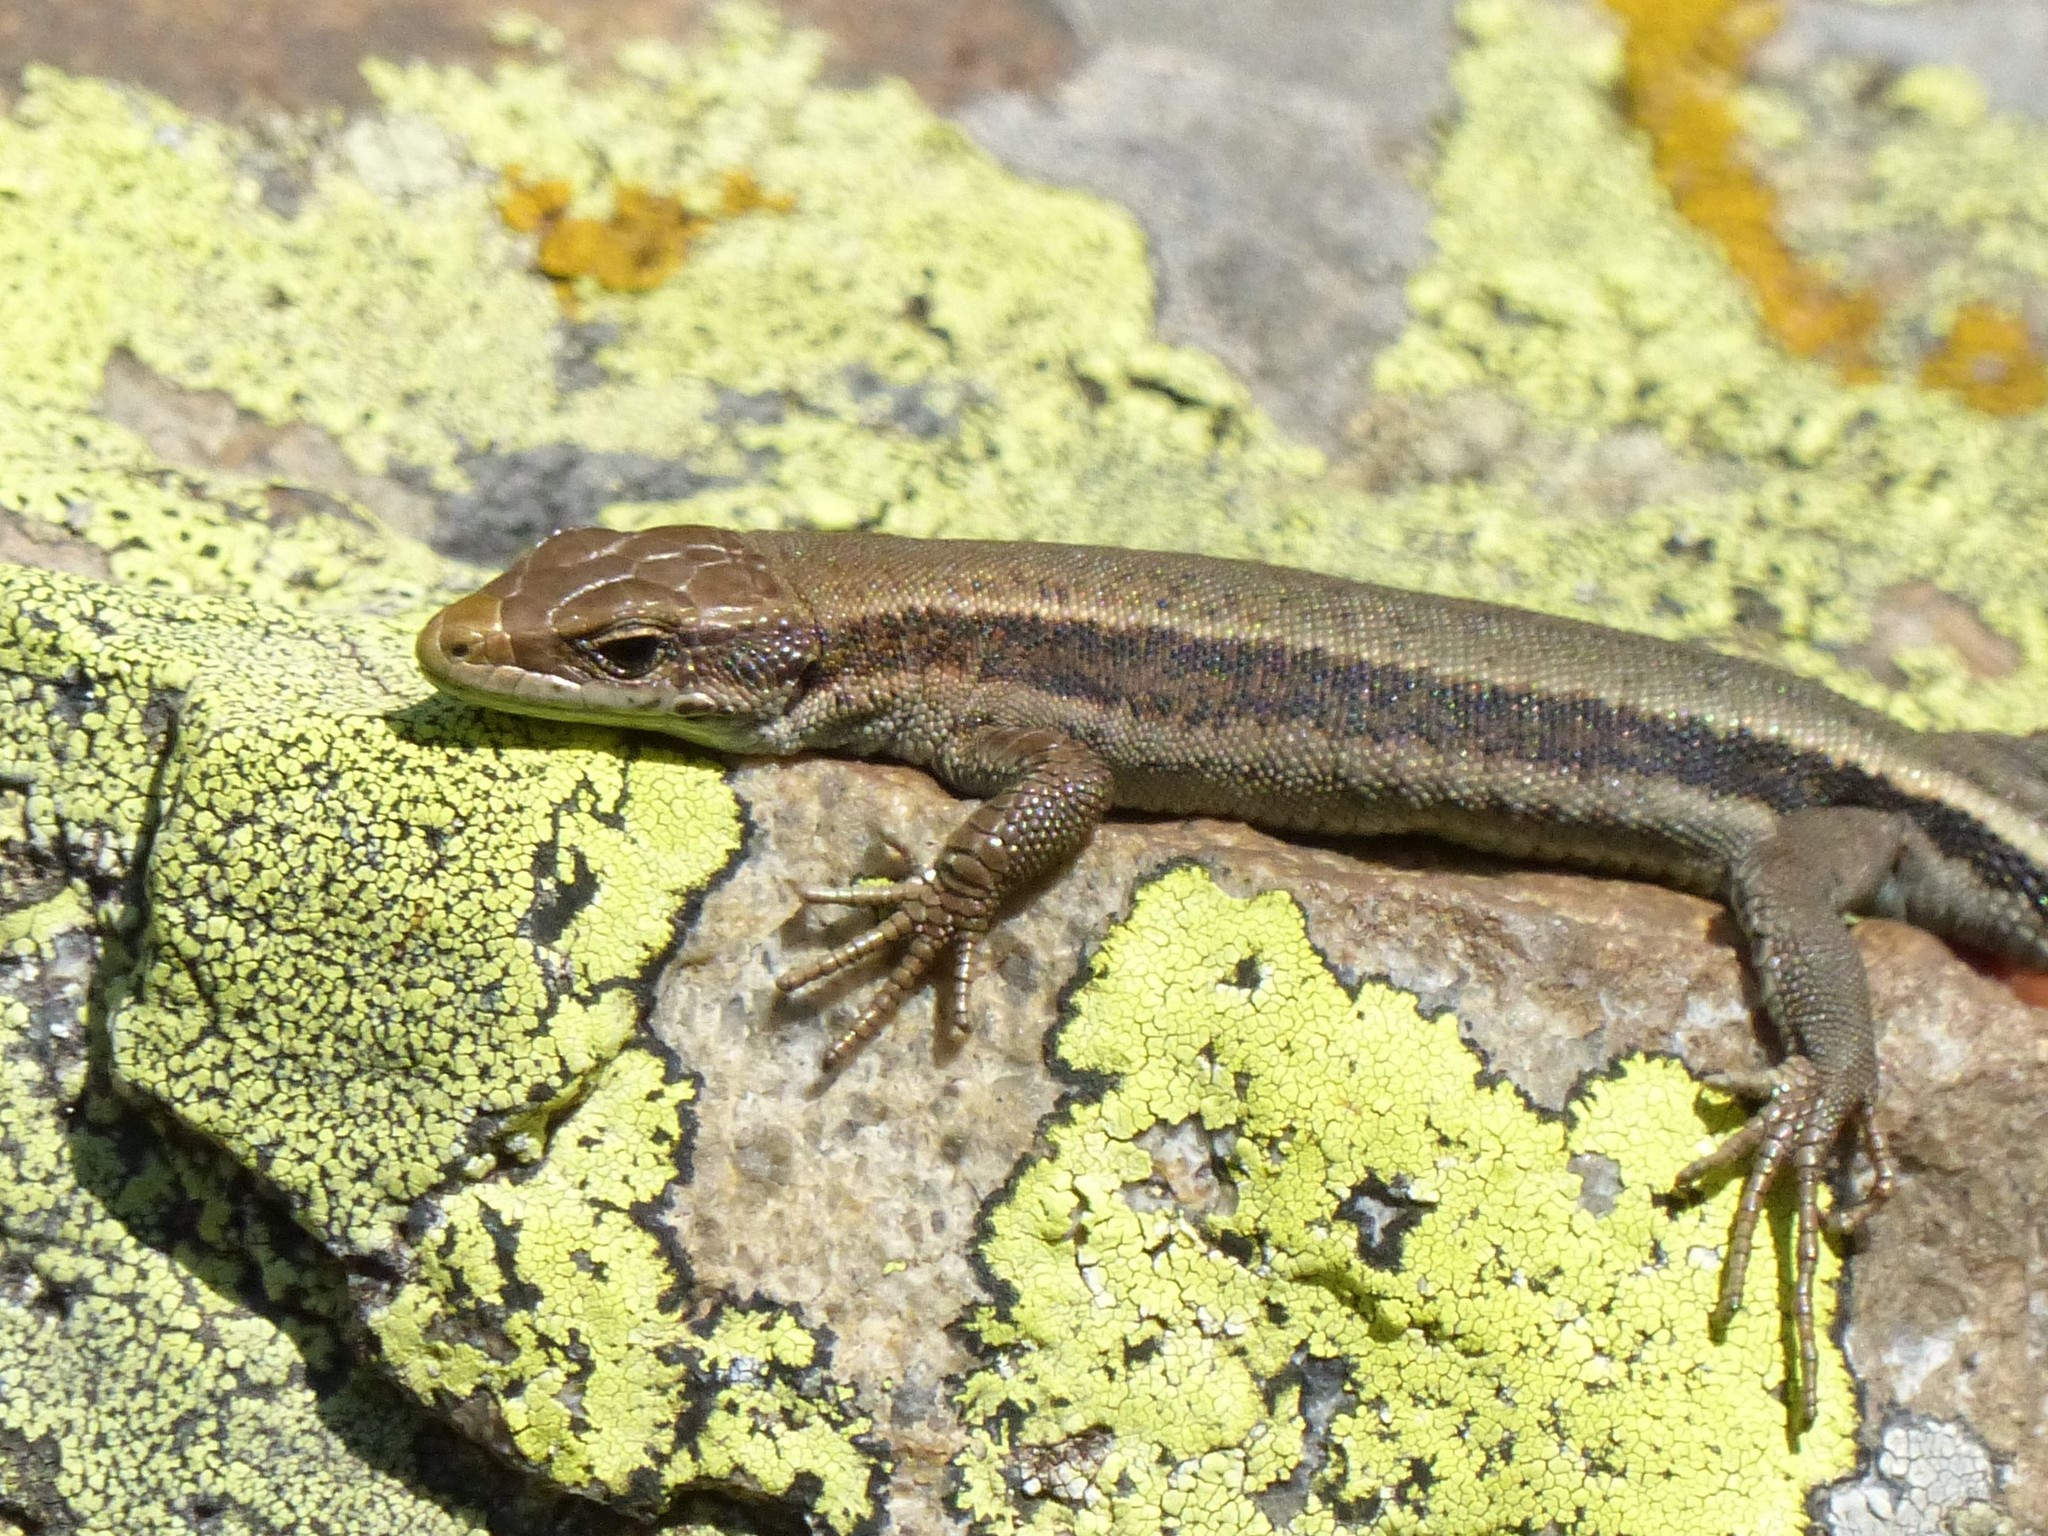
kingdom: Animalia
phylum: Chordata
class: Squamata
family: Lacertidae
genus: Iberolacerta
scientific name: Iberolacerta aurelioi
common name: Aurelio's rock lizard
